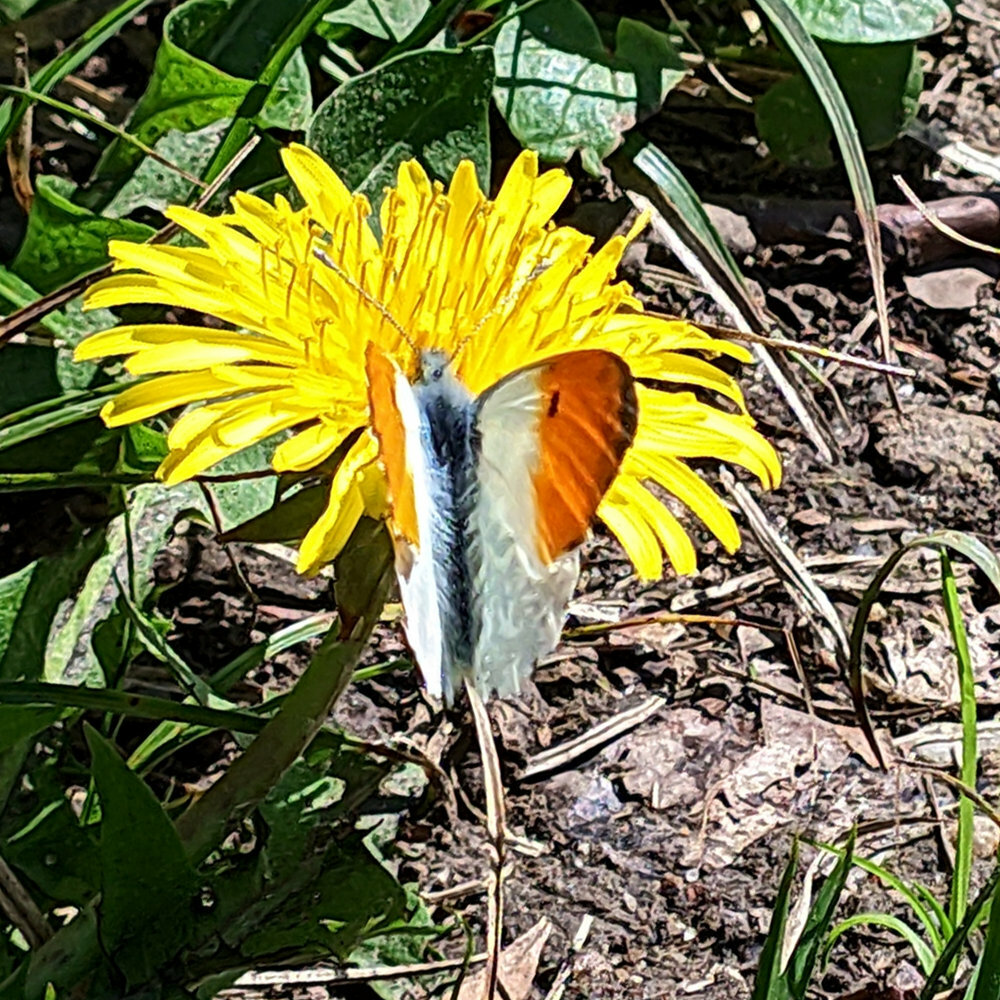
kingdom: Animalia
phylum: Arthropoda
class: Insecta
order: Lepidoptera
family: Pieridae
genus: Anthocharis
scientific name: Anthocharis cardamines
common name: Orange-tip
